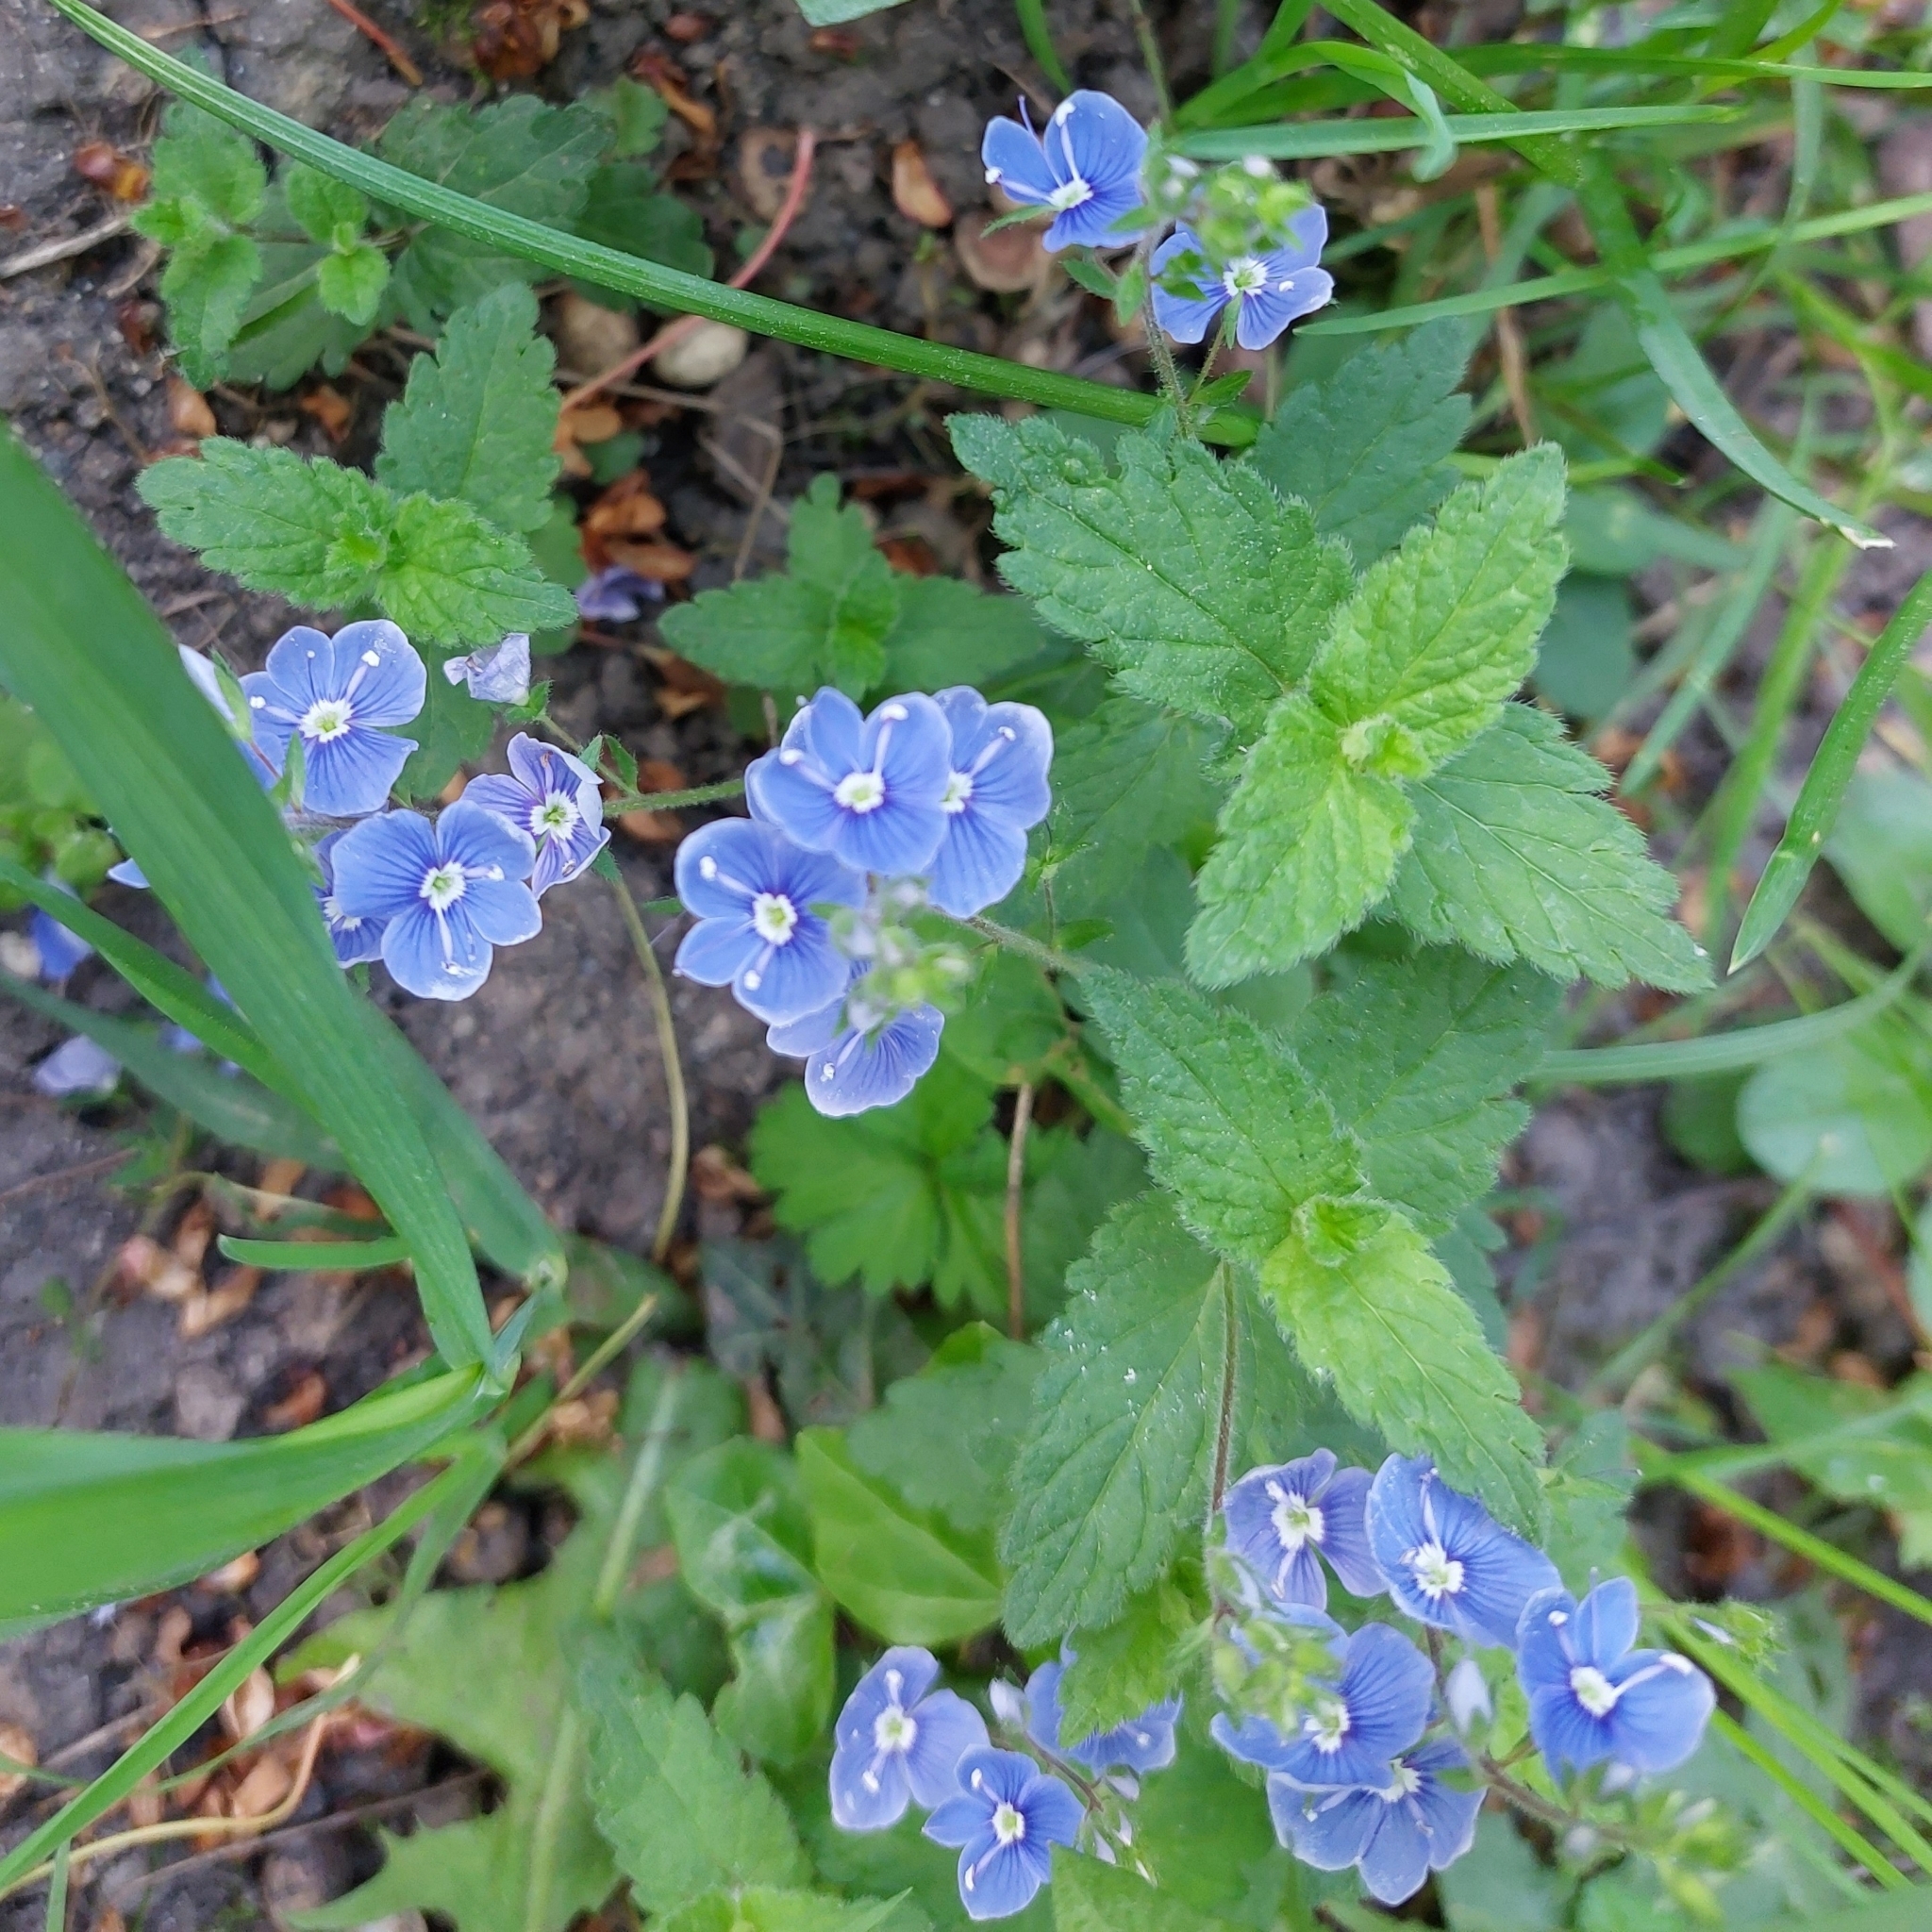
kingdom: Plantae
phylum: Tracheophyta
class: Magnoliopsida
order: Lamiales
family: Plantaginaceae
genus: Veronica
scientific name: Veronica chamaedrys
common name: Germander speedwell
